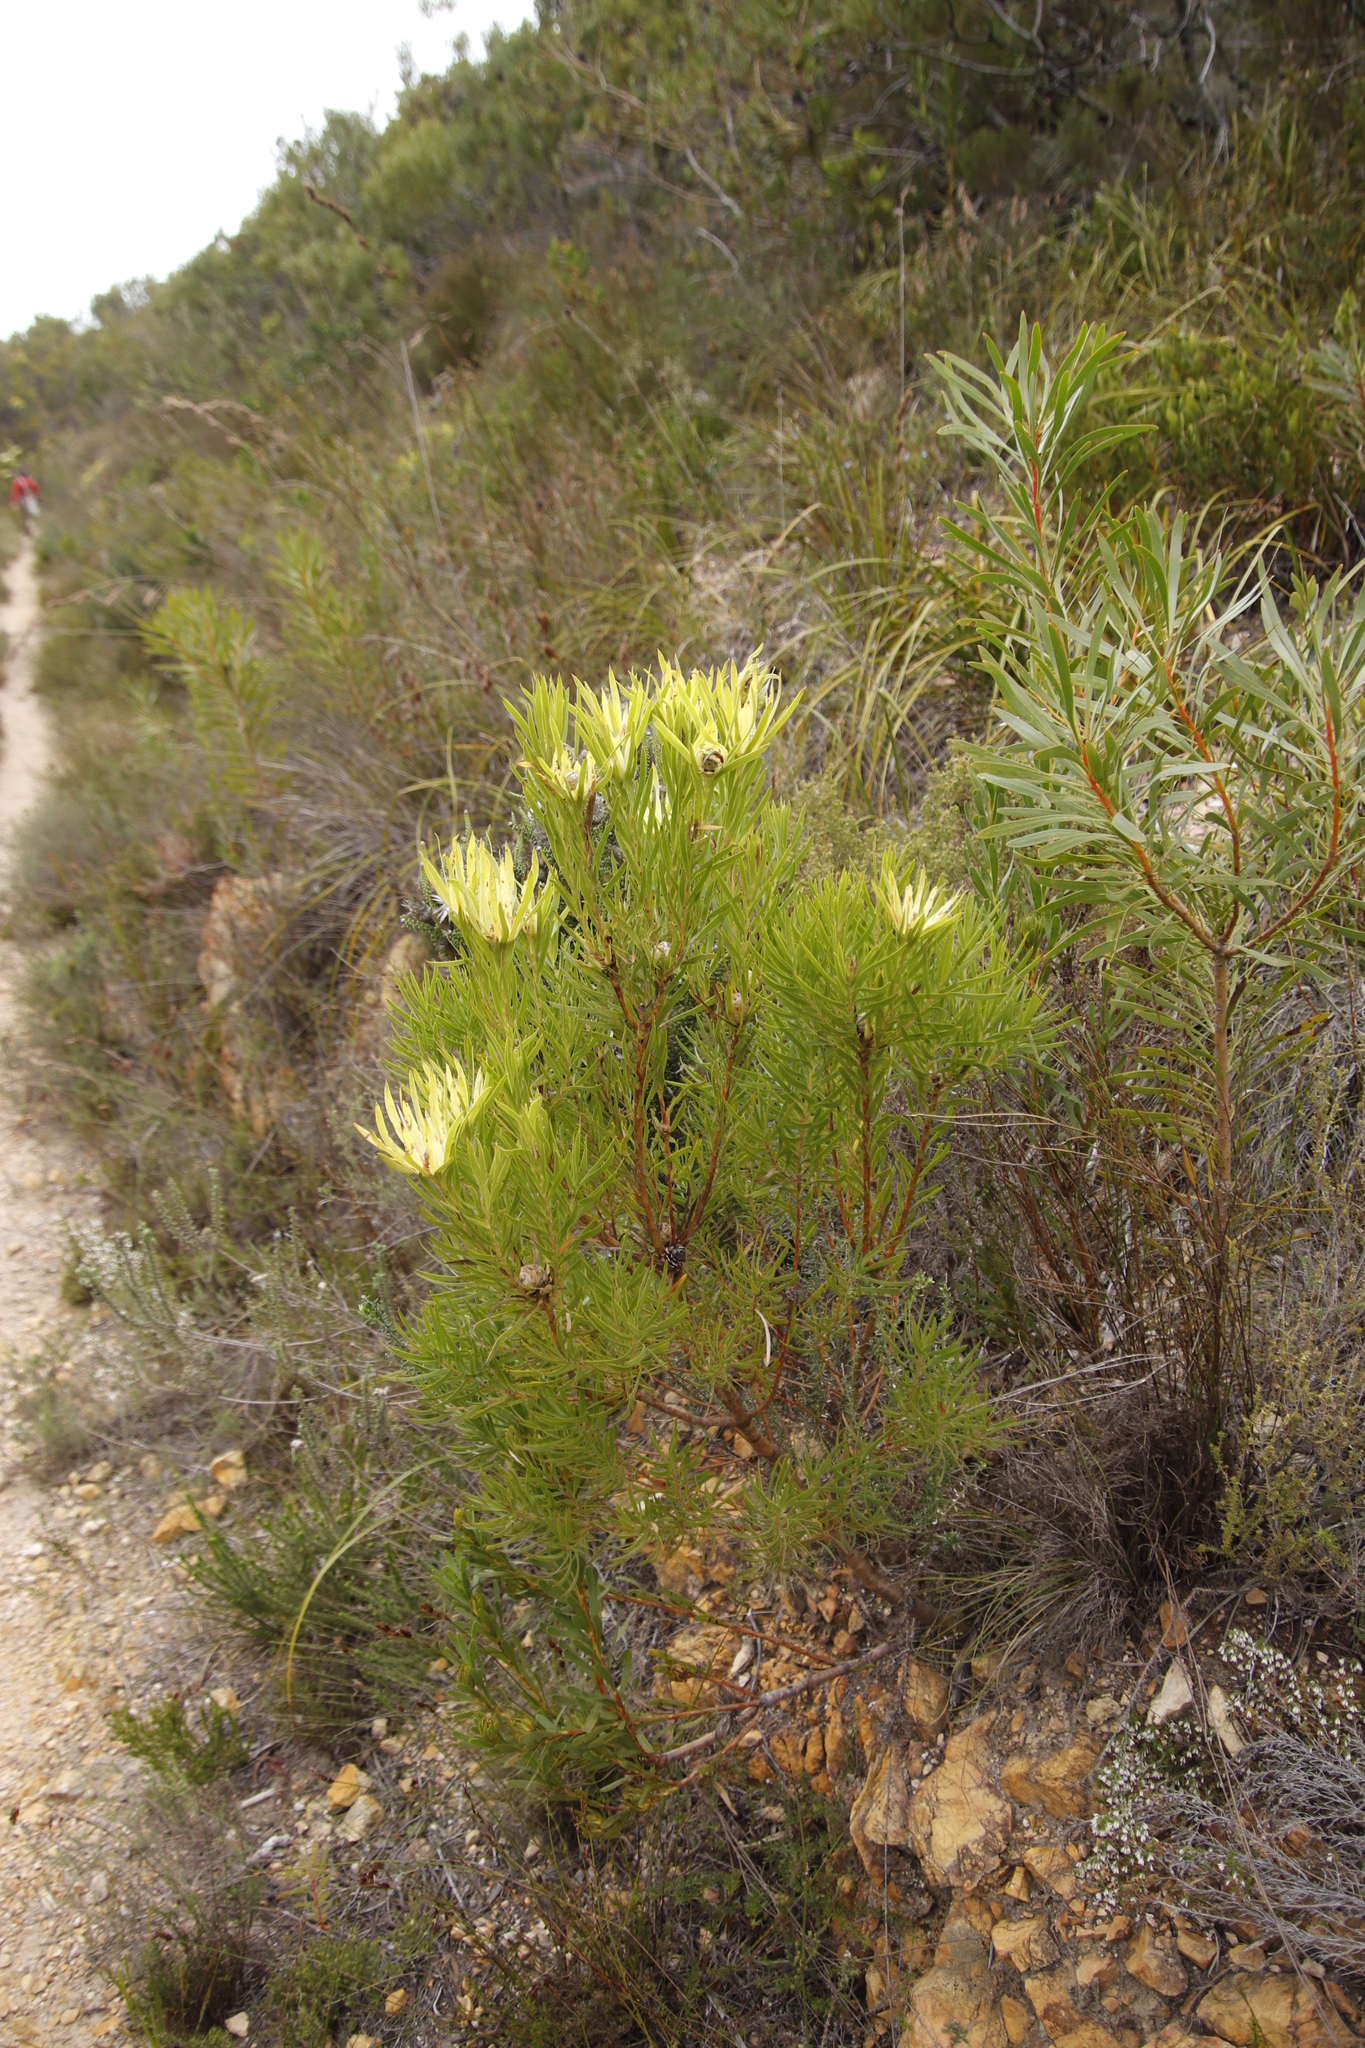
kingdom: Plantae
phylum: Tracheophyta
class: Magnoliopsida
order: Proteales
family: Proteaceae
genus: Leucadendron
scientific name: Leucadendron xanthoconus
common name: Sickle-leaf conebush
